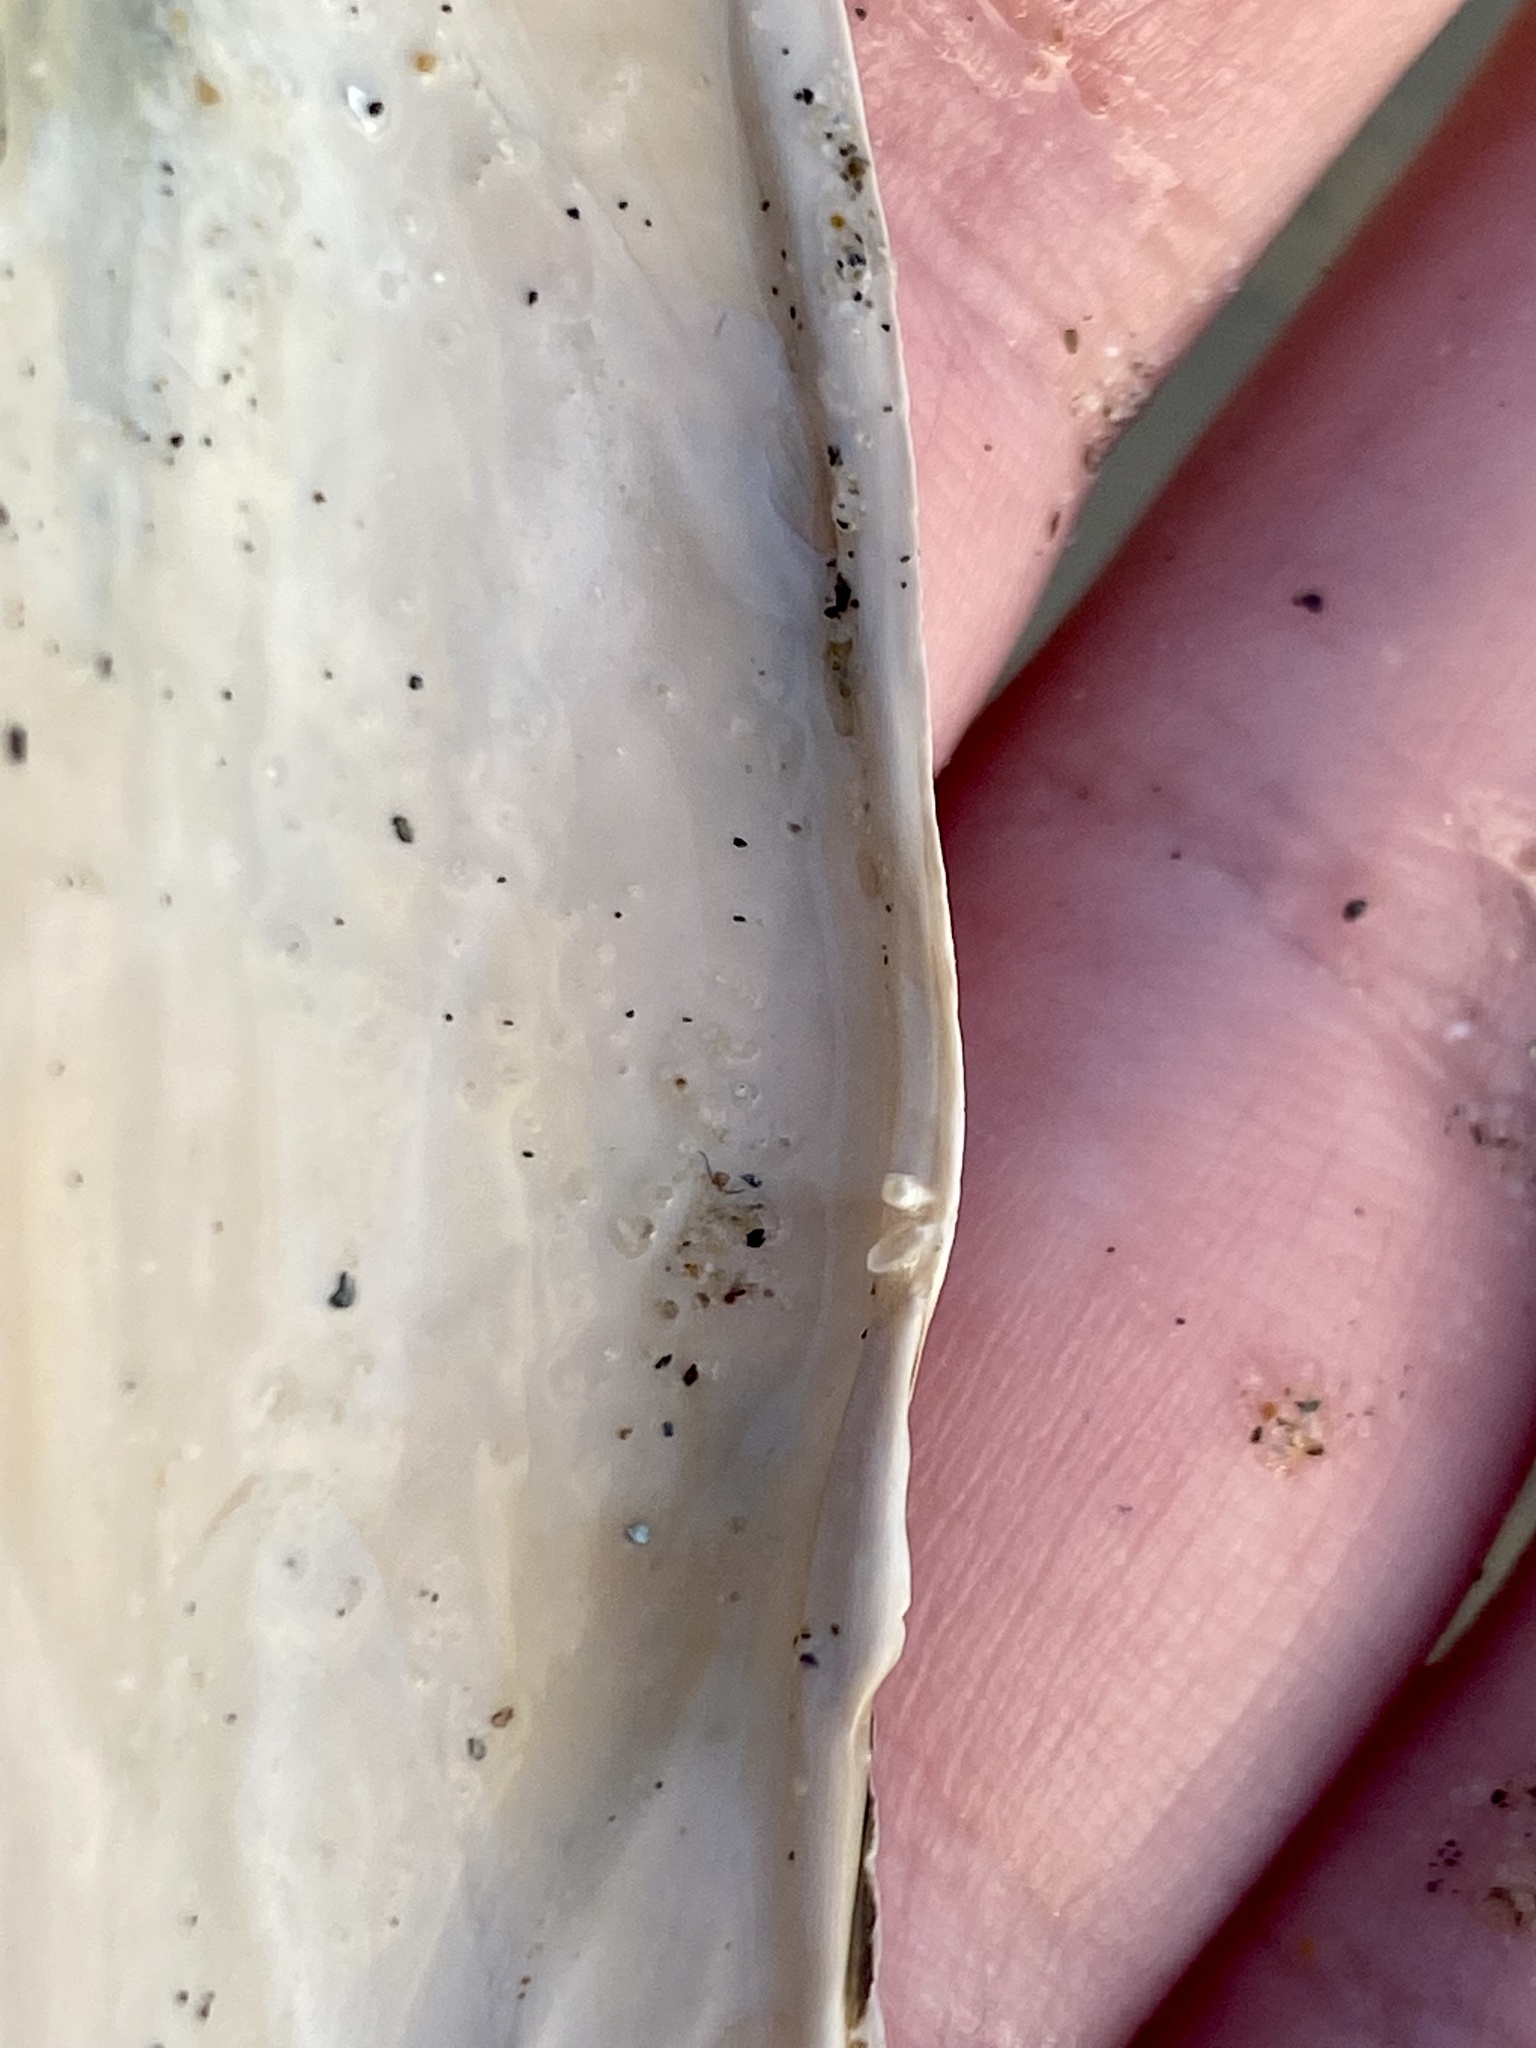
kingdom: Animalia
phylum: Mollusca
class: Bivalvia
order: Cardiida
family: Solecurtidae
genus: Tagelus
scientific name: Tagelus californianus
